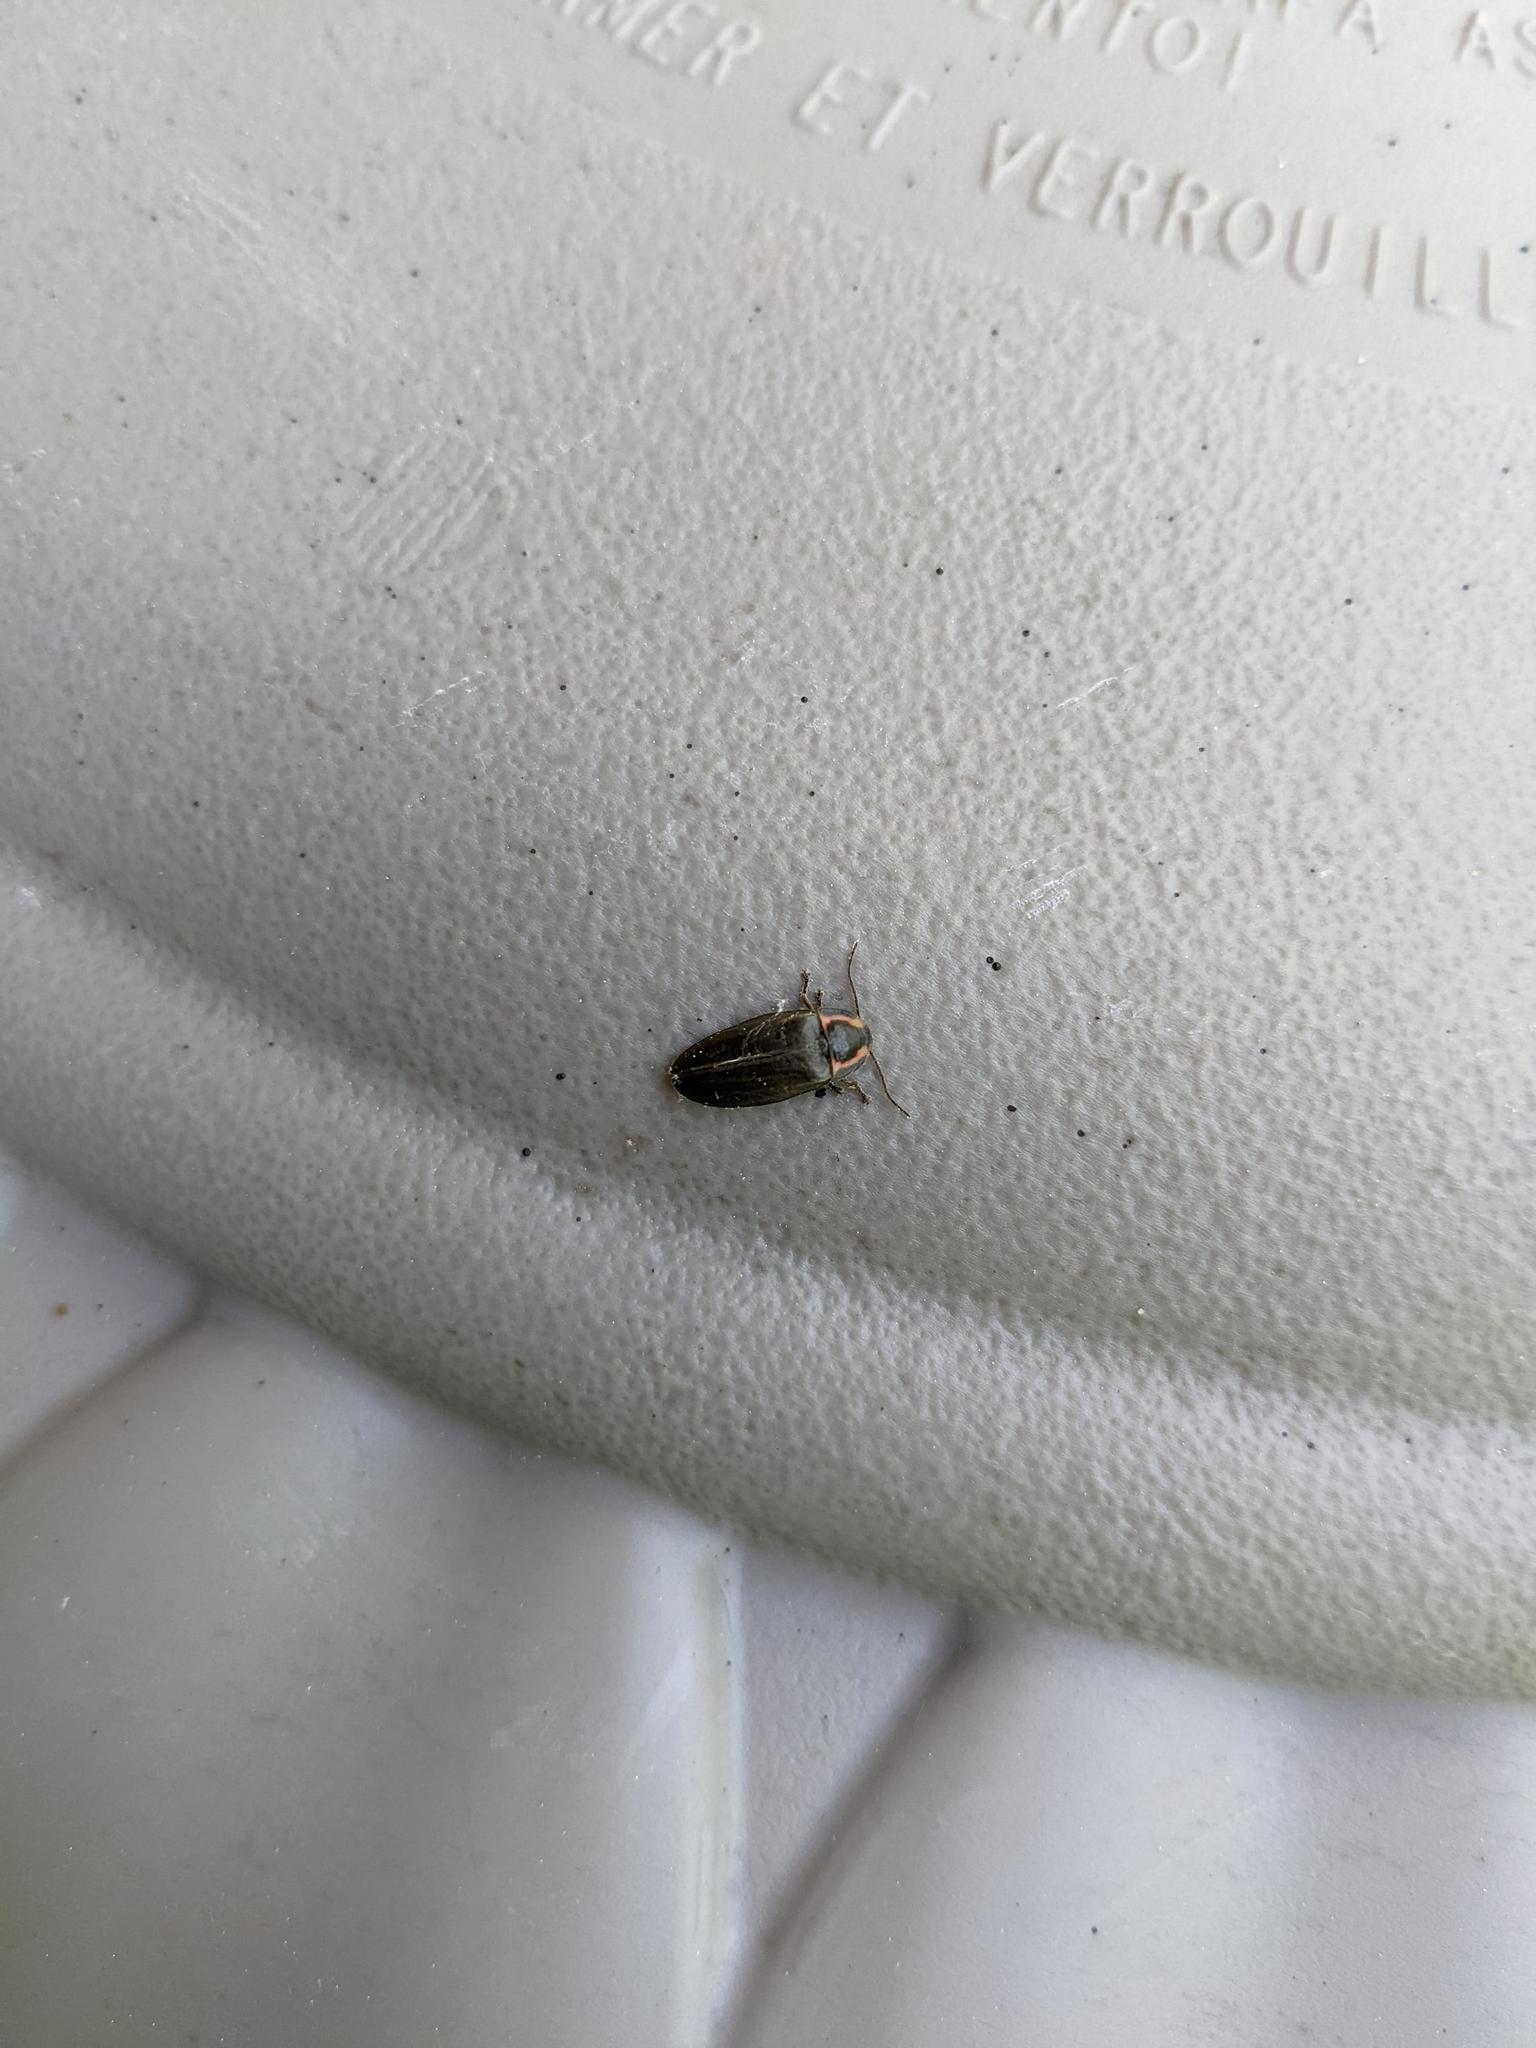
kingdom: Animalia
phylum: Arthropoda
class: Insecta
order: Coleoptera
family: Lampyridae
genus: Photinus
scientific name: Photinus corrusca
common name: Winter firefly
